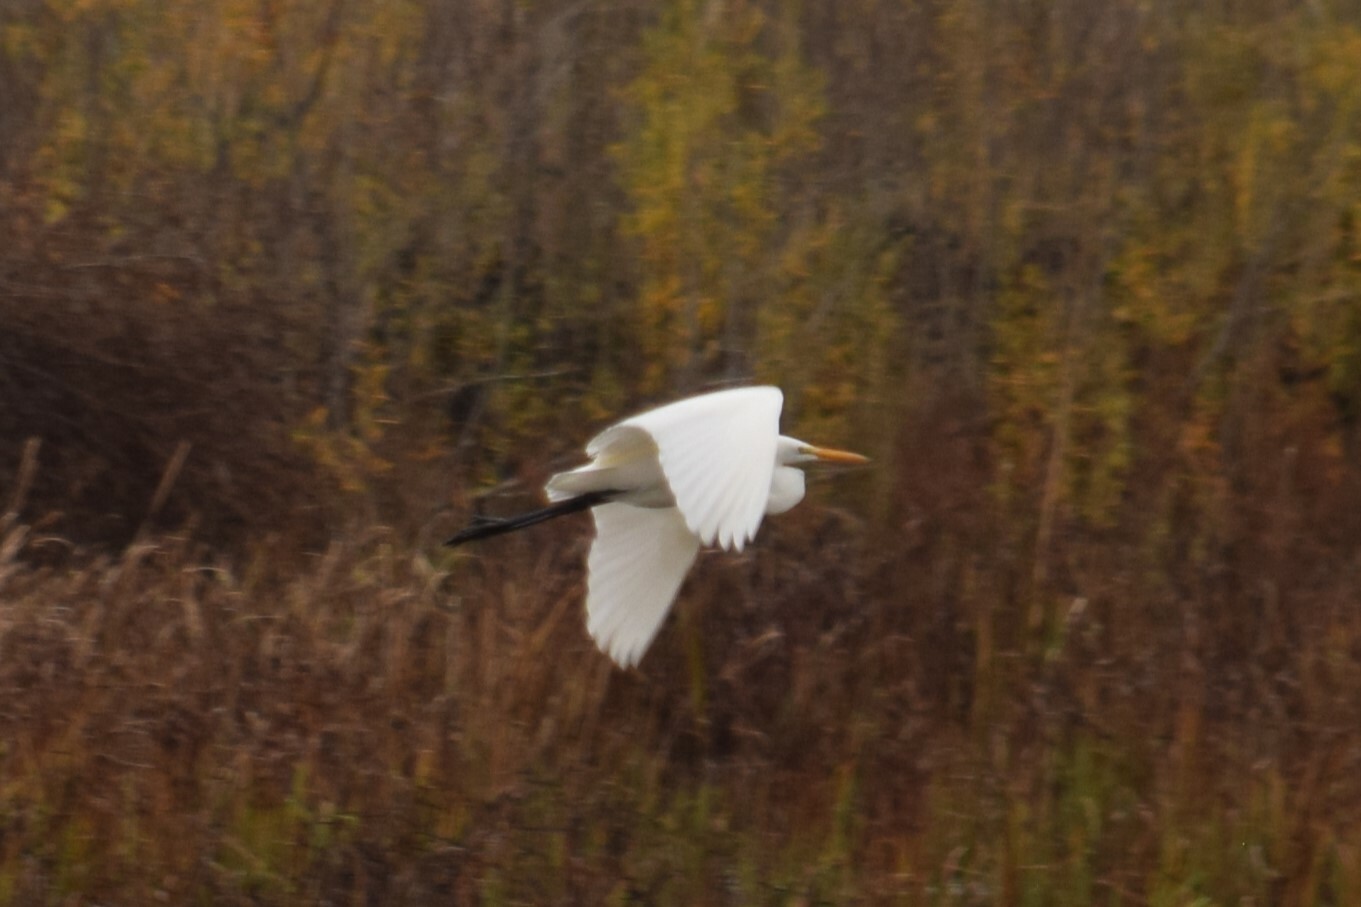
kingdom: Animalia
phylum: Chordata
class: Aves
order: Pelecaniformes
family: Ardeidae
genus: Ardea
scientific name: Ardea alba
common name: Great egret
